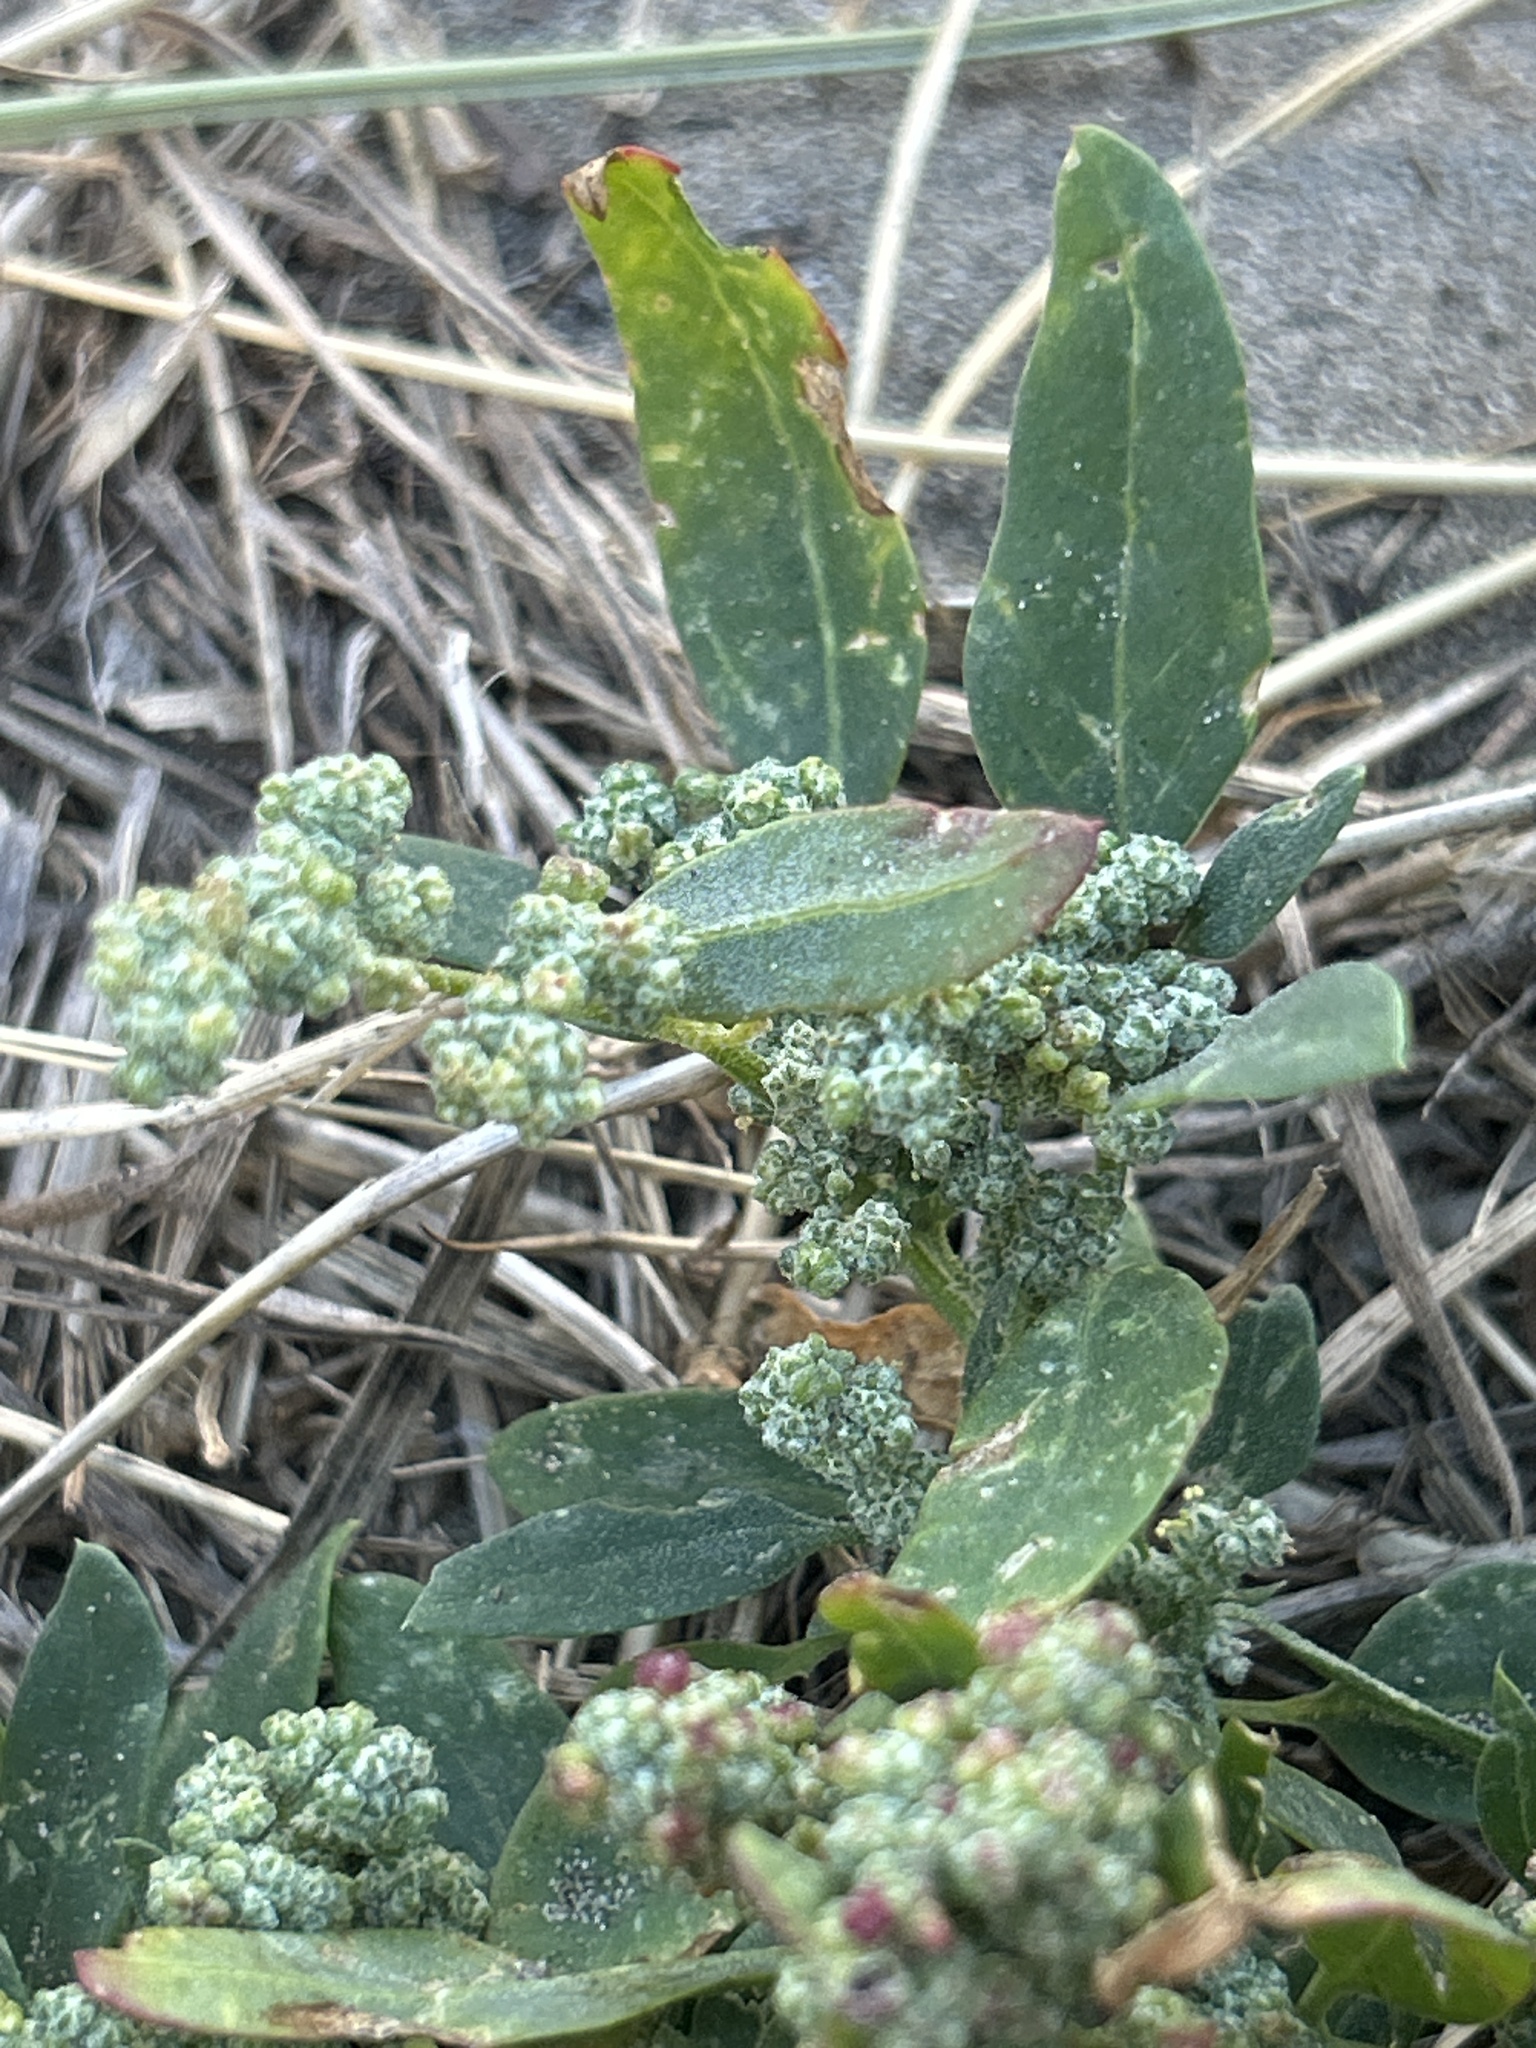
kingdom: Plantae
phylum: Tracheophyta
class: Magnoliopsida
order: Caryophyllales
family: Amaranthaceae
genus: Chenopodiastrum
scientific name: Chenopodiastrum murale
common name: Sowbane
